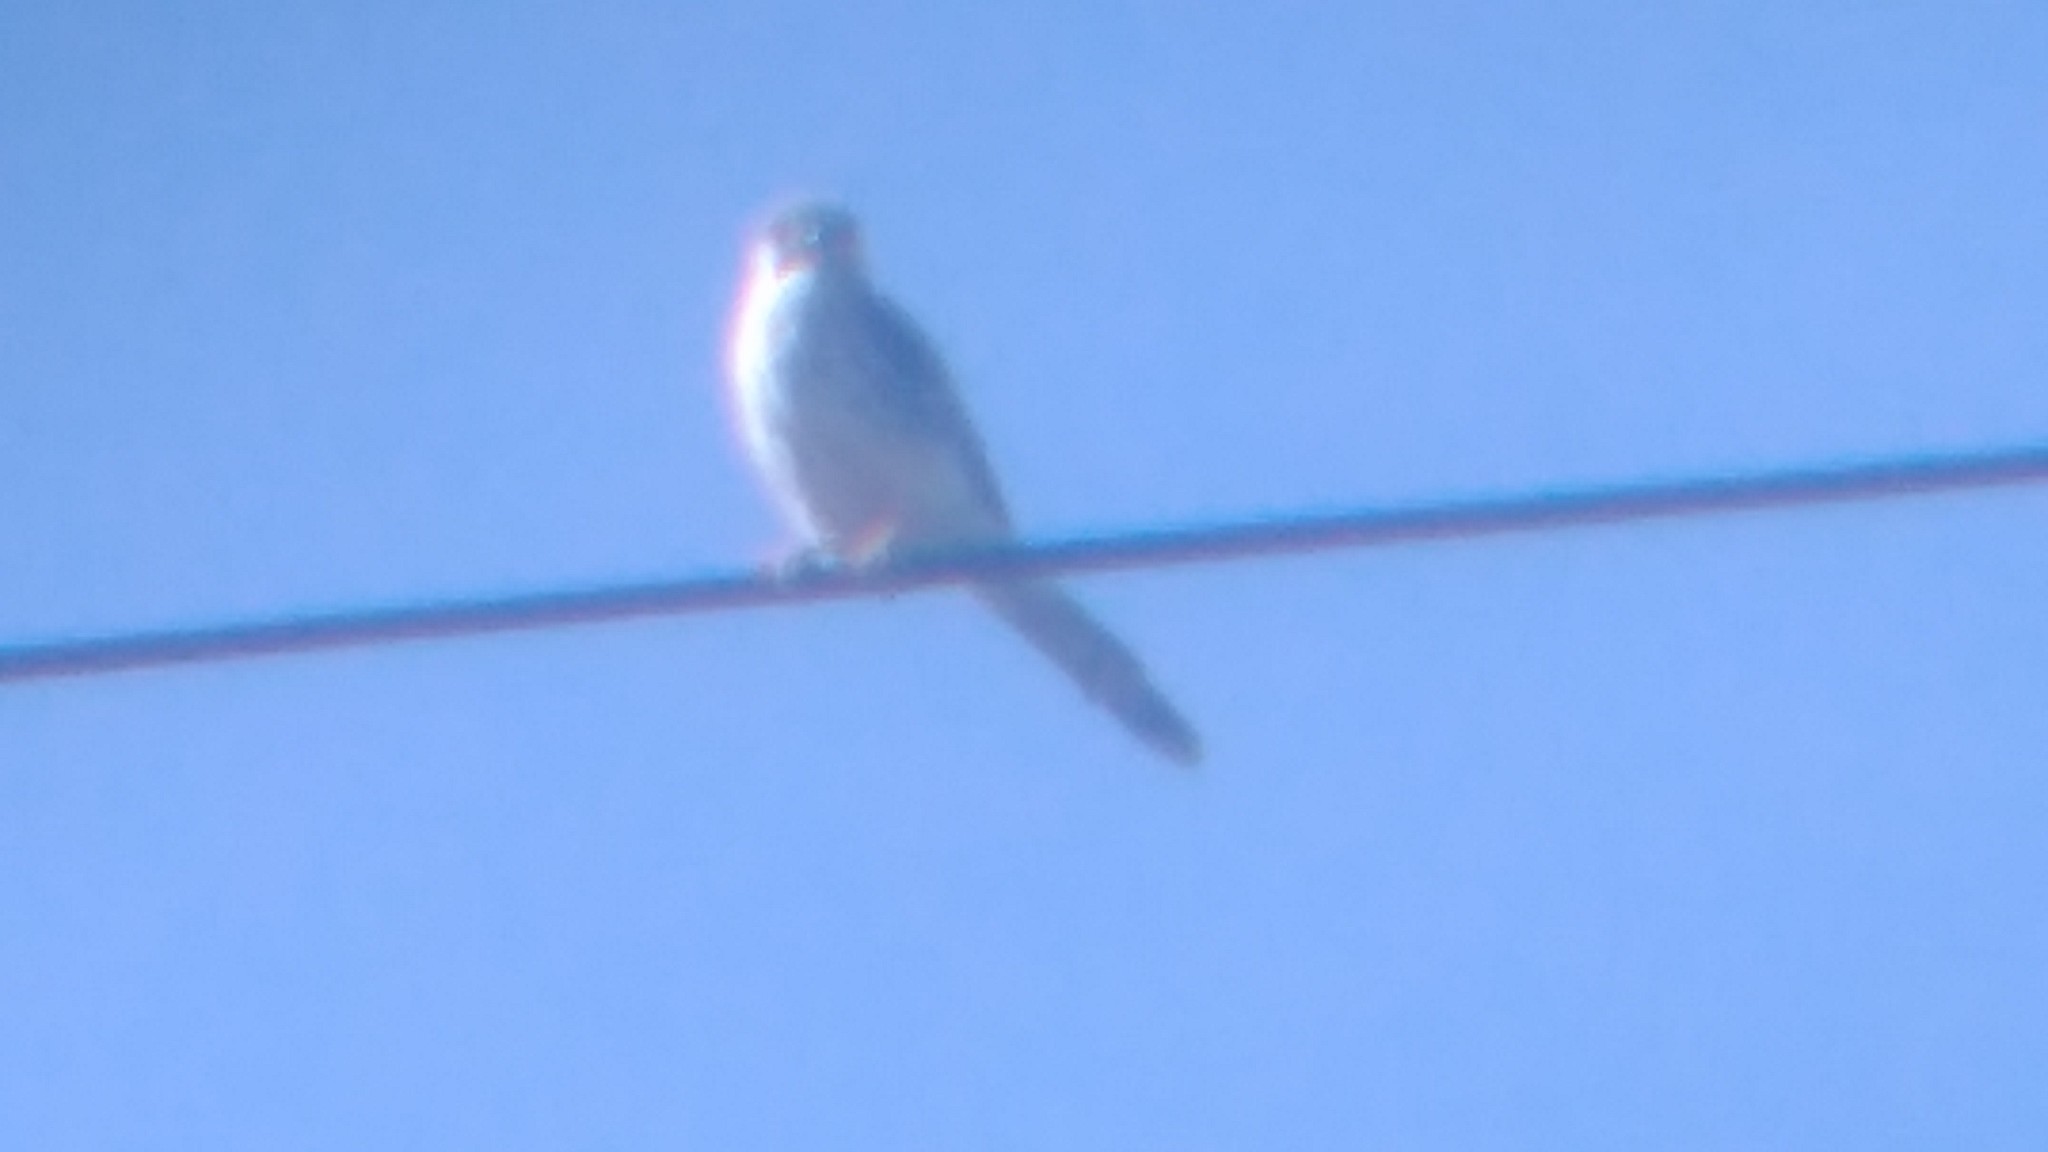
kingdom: Animalia
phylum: Chordata
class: Aves
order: Falconiformes
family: Falconidae
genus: Falco
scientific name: Falco sparverius
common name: American kestrel
